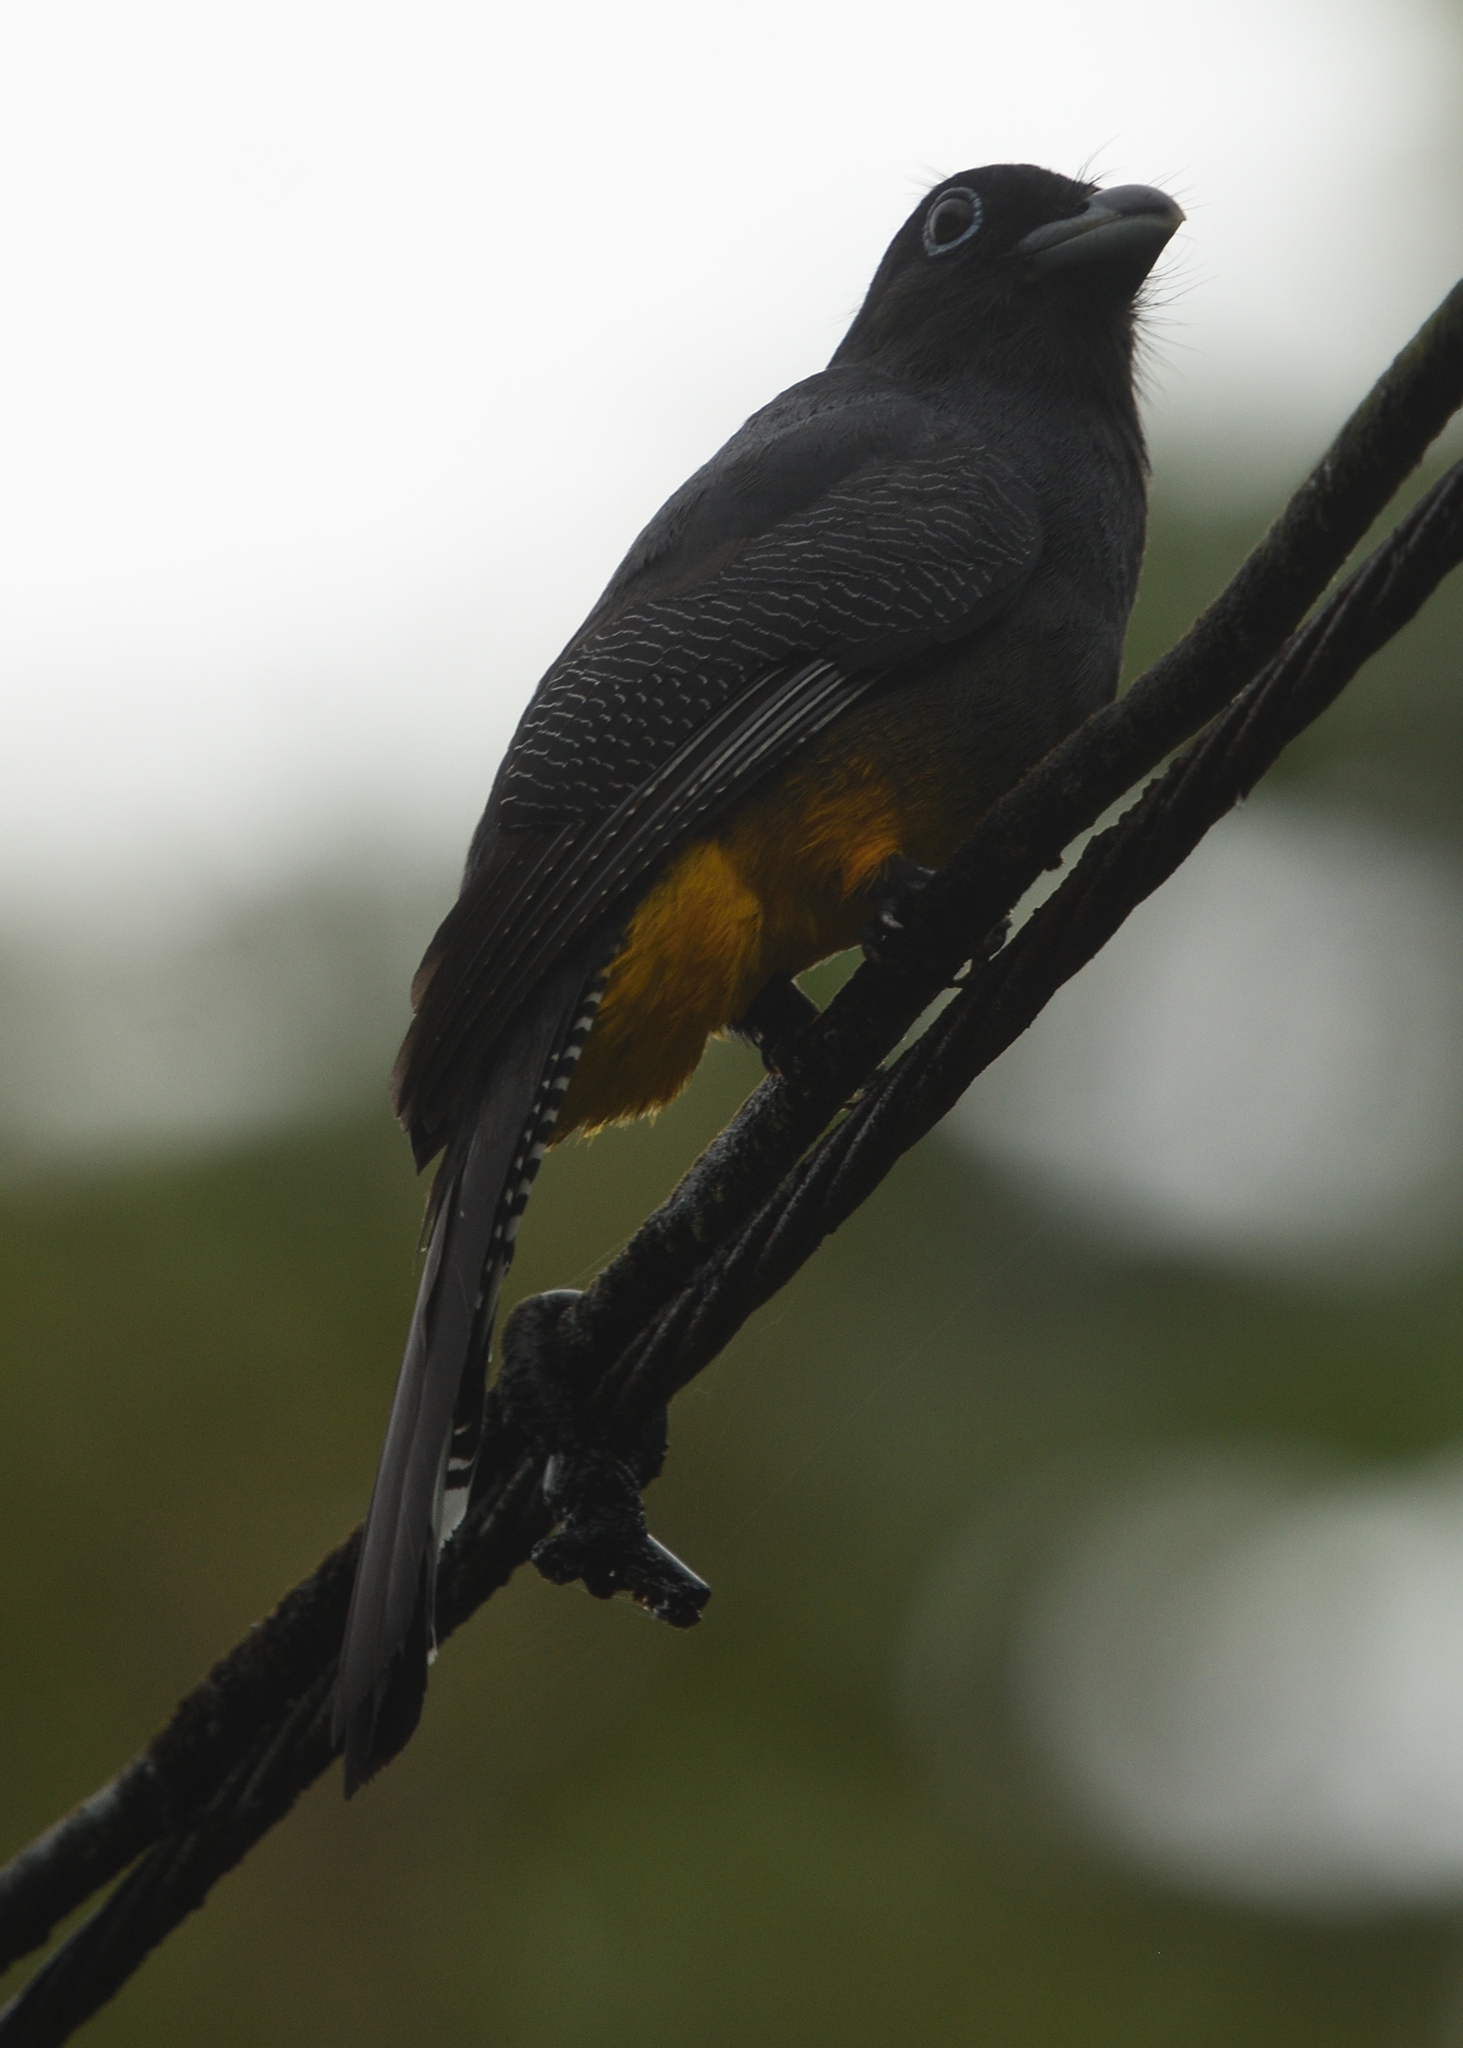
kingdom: Animalia
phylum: Chordata
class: Aves
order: Trogoniformes
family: Trogonidae
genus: Trogon
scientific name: Trogon chionurus
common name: White-tailed trogon
